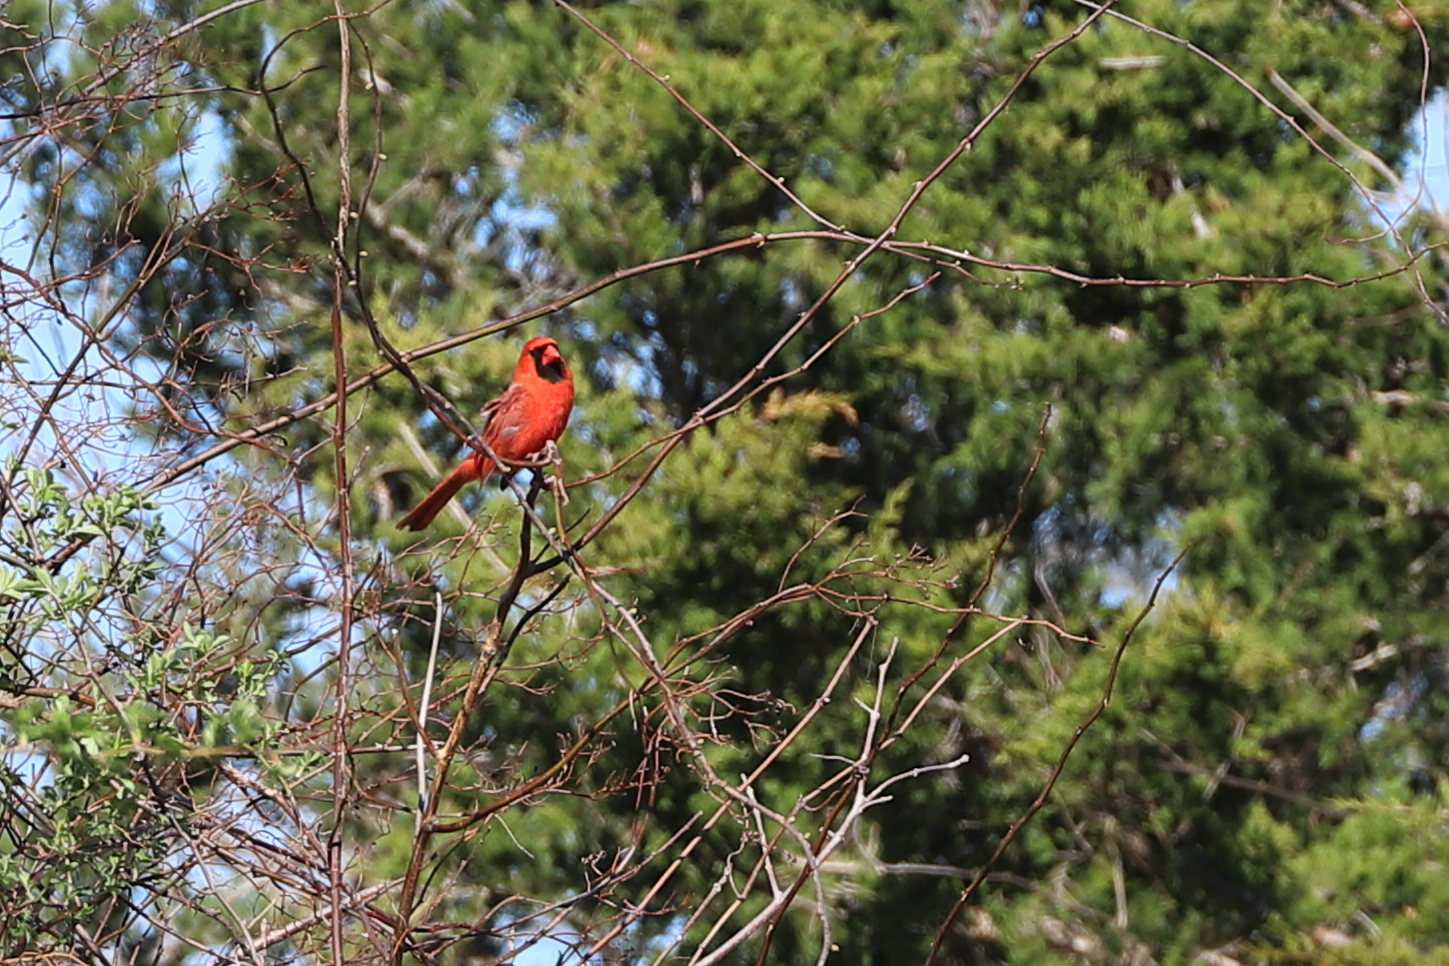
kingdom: Animalia
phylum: Chordata
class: Aves
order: Passeriformes
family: Cardinalidae
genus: Cardinalis
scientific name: Cardinalis cardinalis
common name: Northern cardinal
